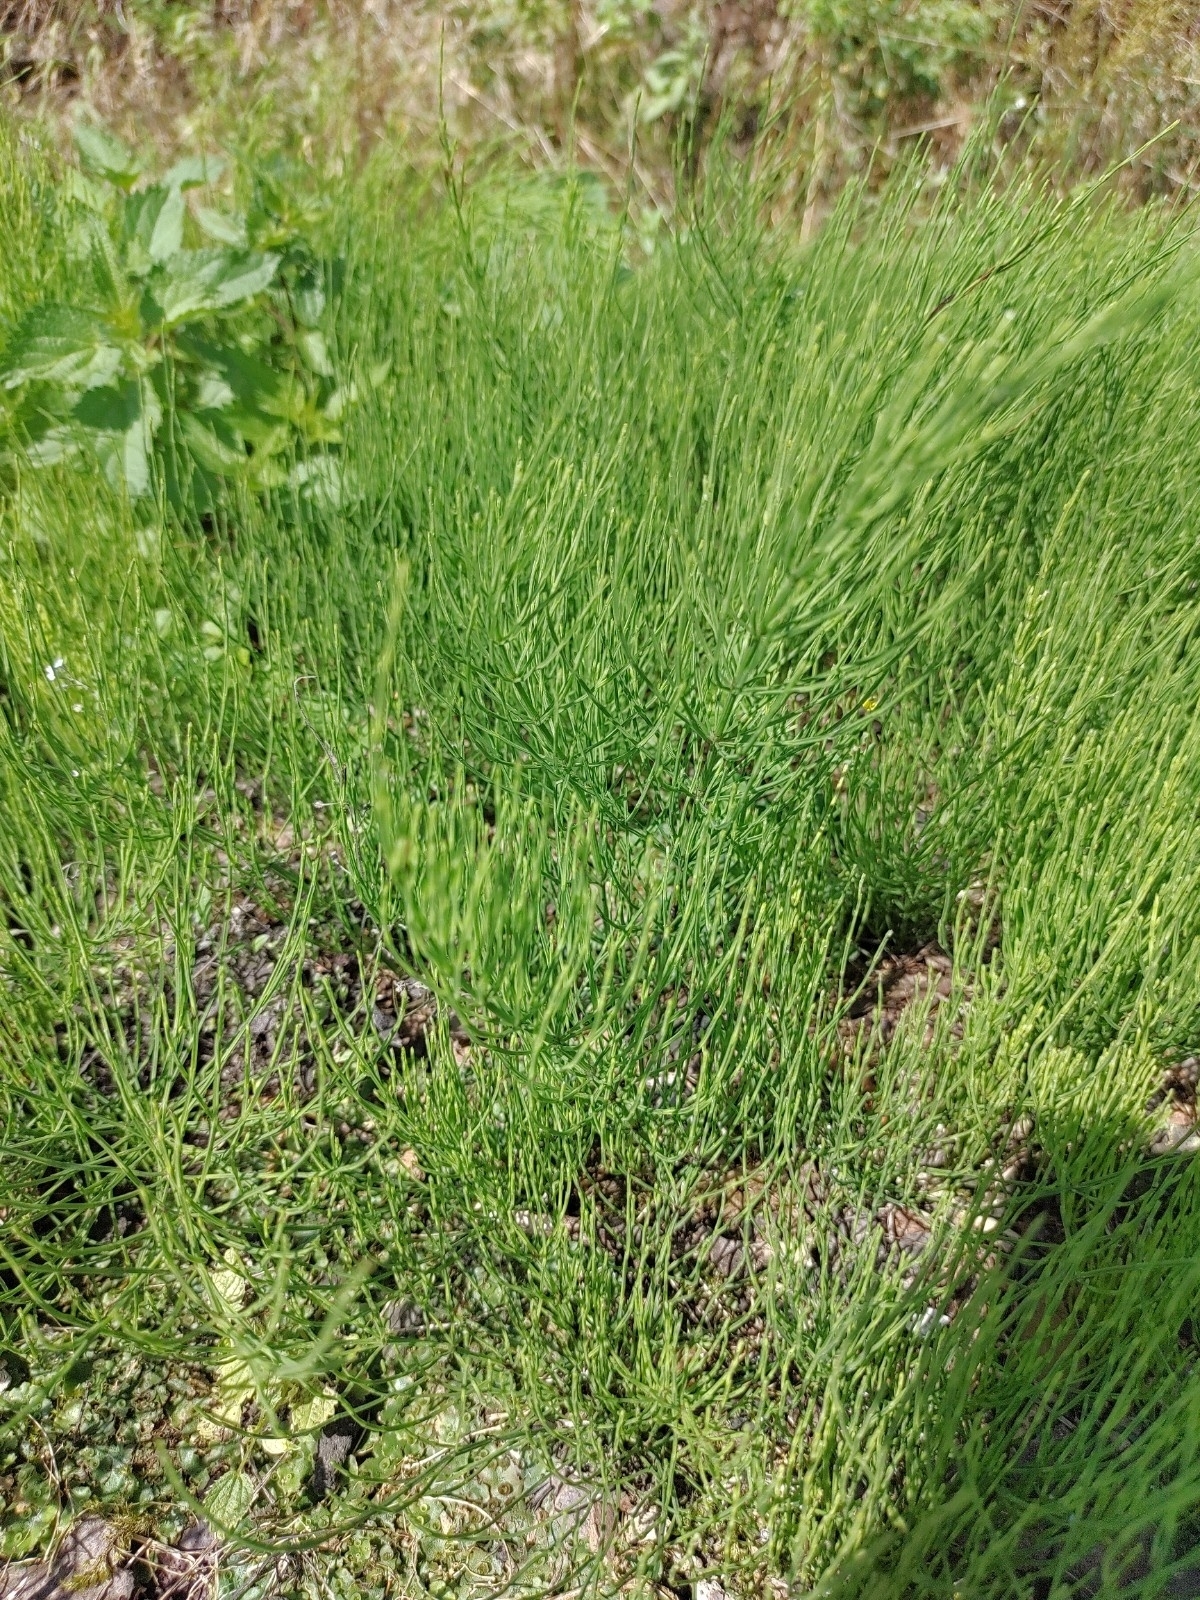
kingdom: Plantae
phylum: Tracheophyta
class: Polypodiopsida
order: Equisetales
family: Equisetaceae
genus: Equisetum
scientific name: Equisetum arvense
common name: Field horsetail
